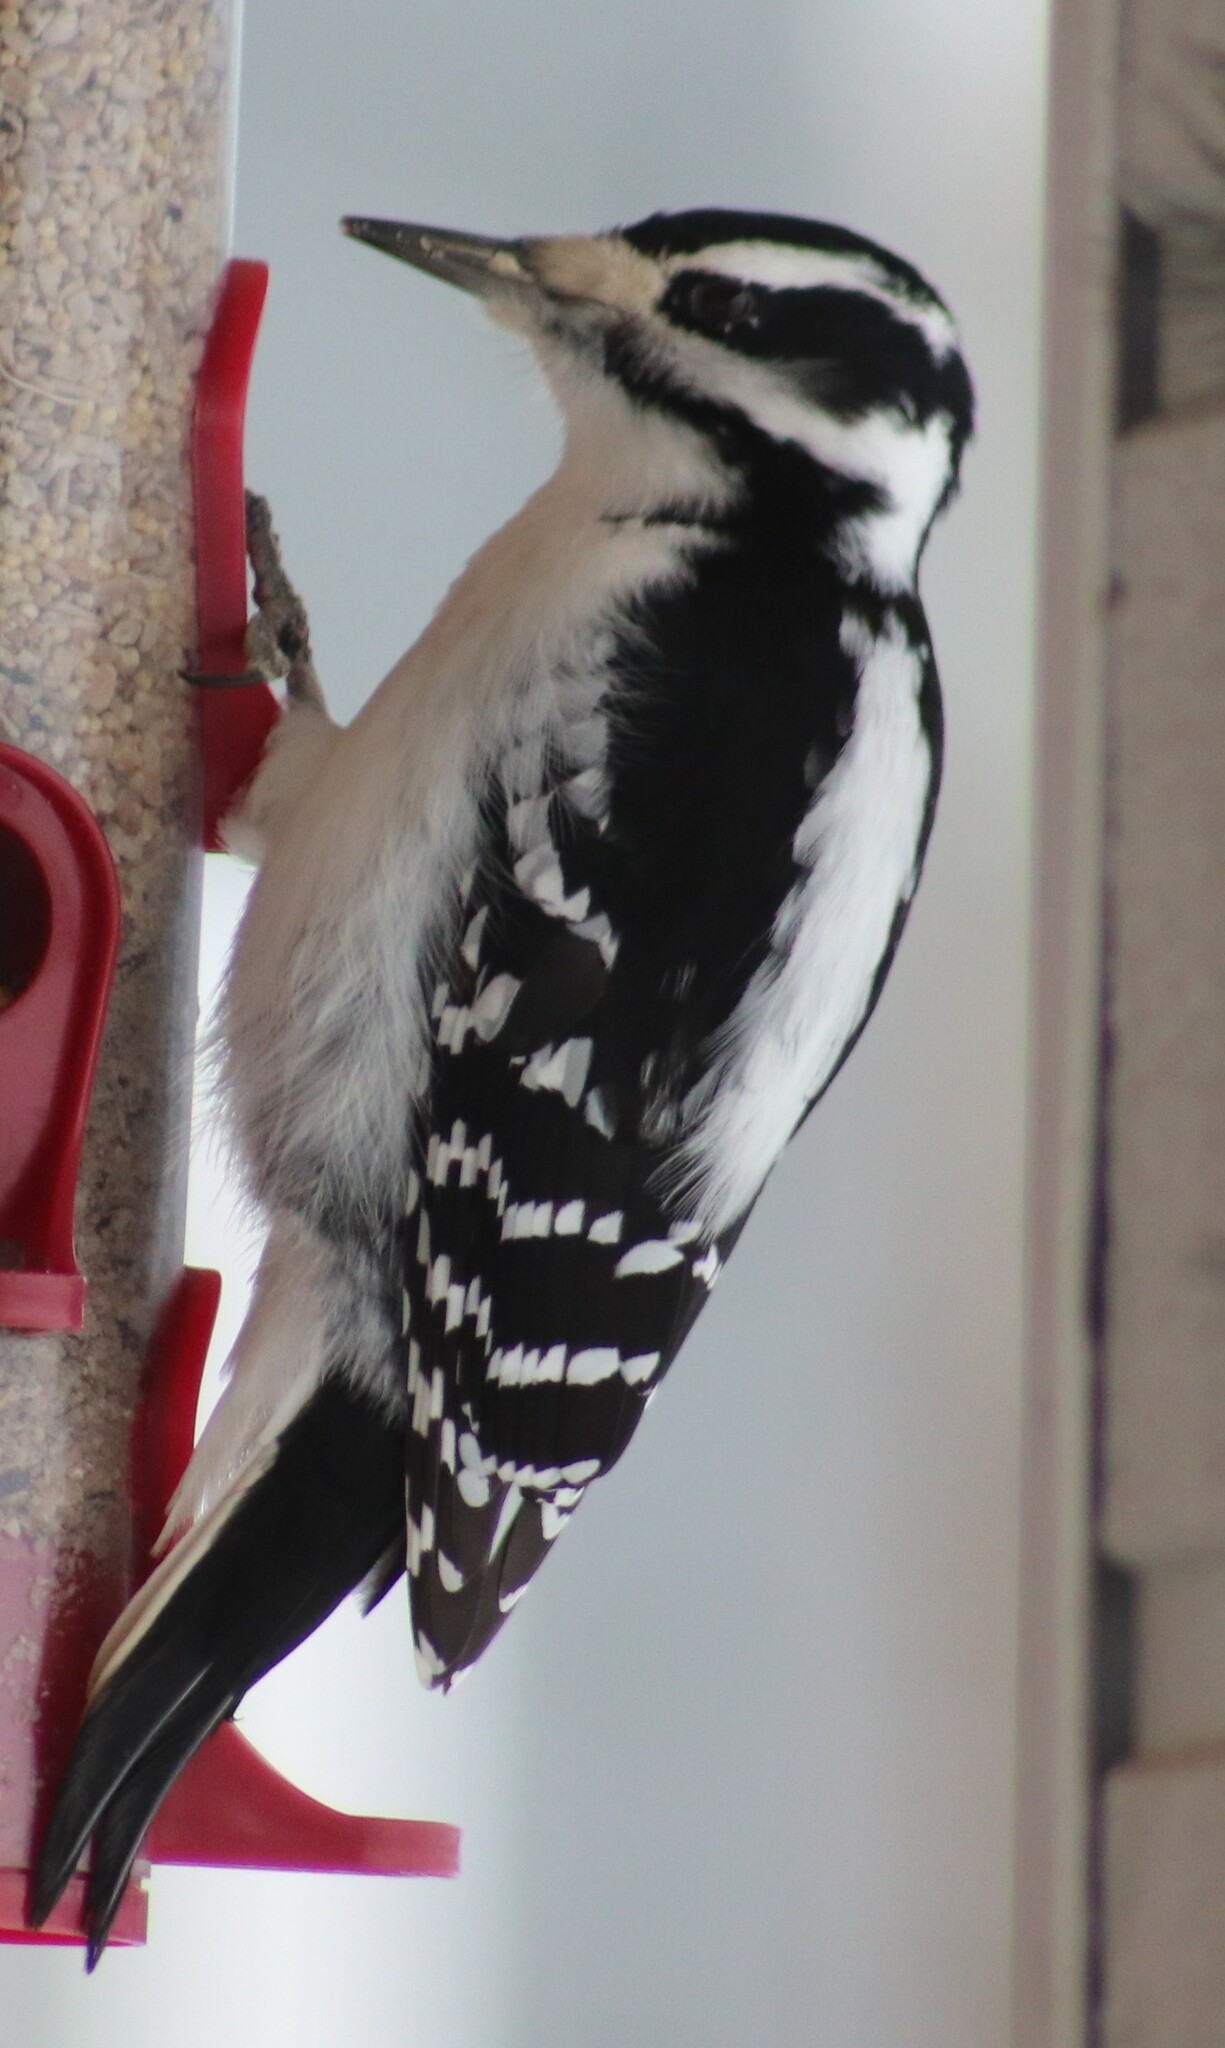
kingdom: Animalia
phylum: Chordata
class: Aves
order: Piciformes
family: Picidae
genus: Leuconotopicus
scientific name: Leuconotopicus villosus
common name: Hairy woodpecker
